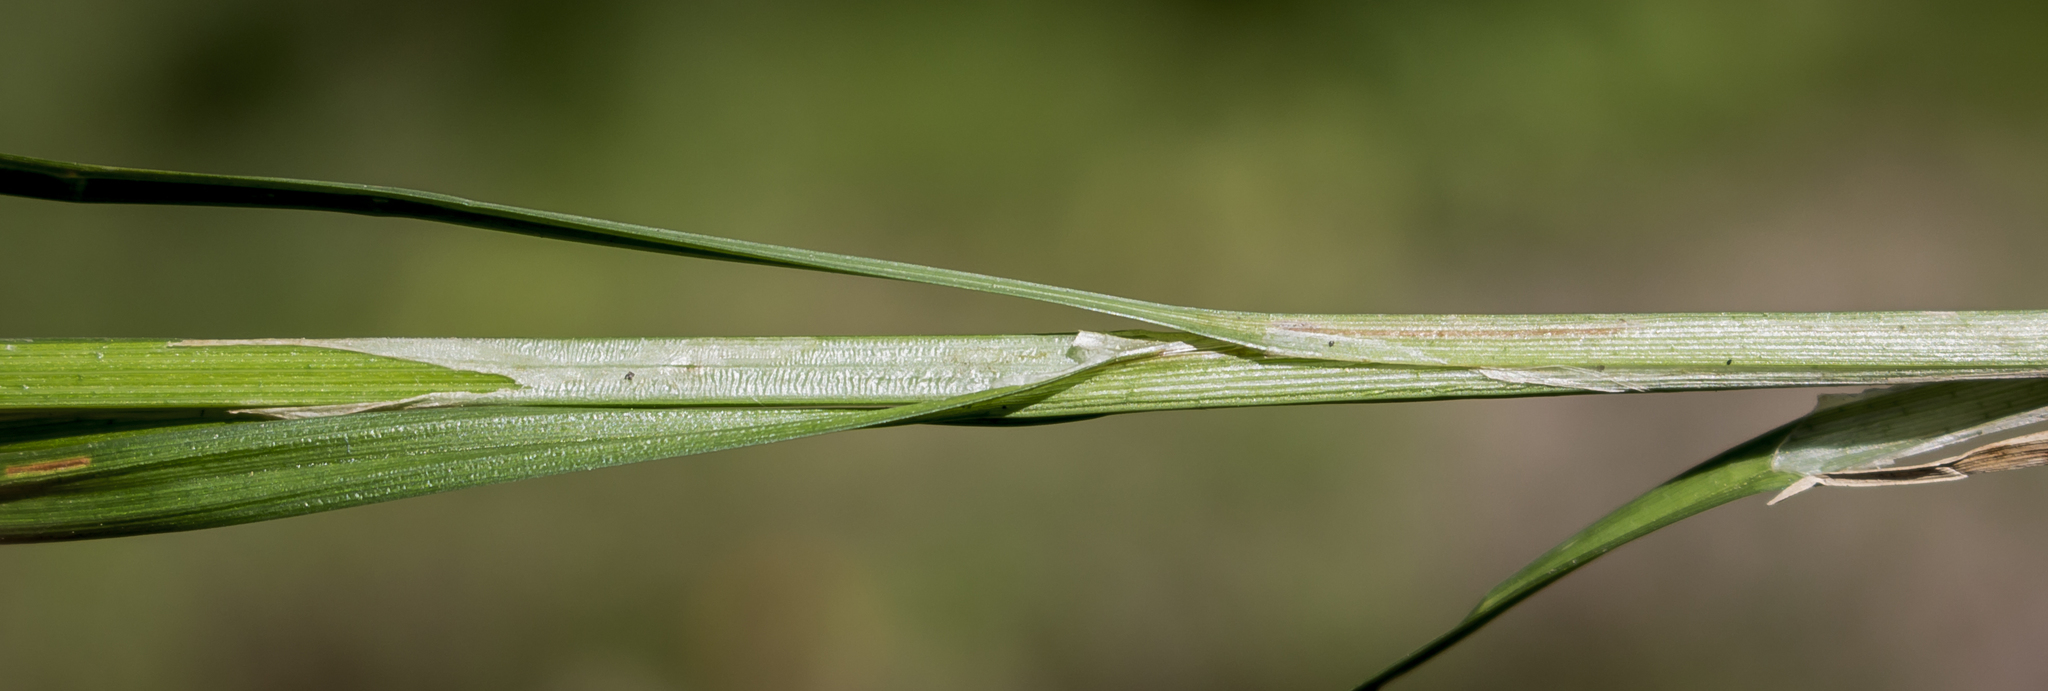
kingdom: Plantae
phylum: Tracheophyta
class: Liliopsida
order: Poales
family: Cyperaceae
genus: Carex
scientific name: Carex stipata
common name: Awl-fruited sedge
